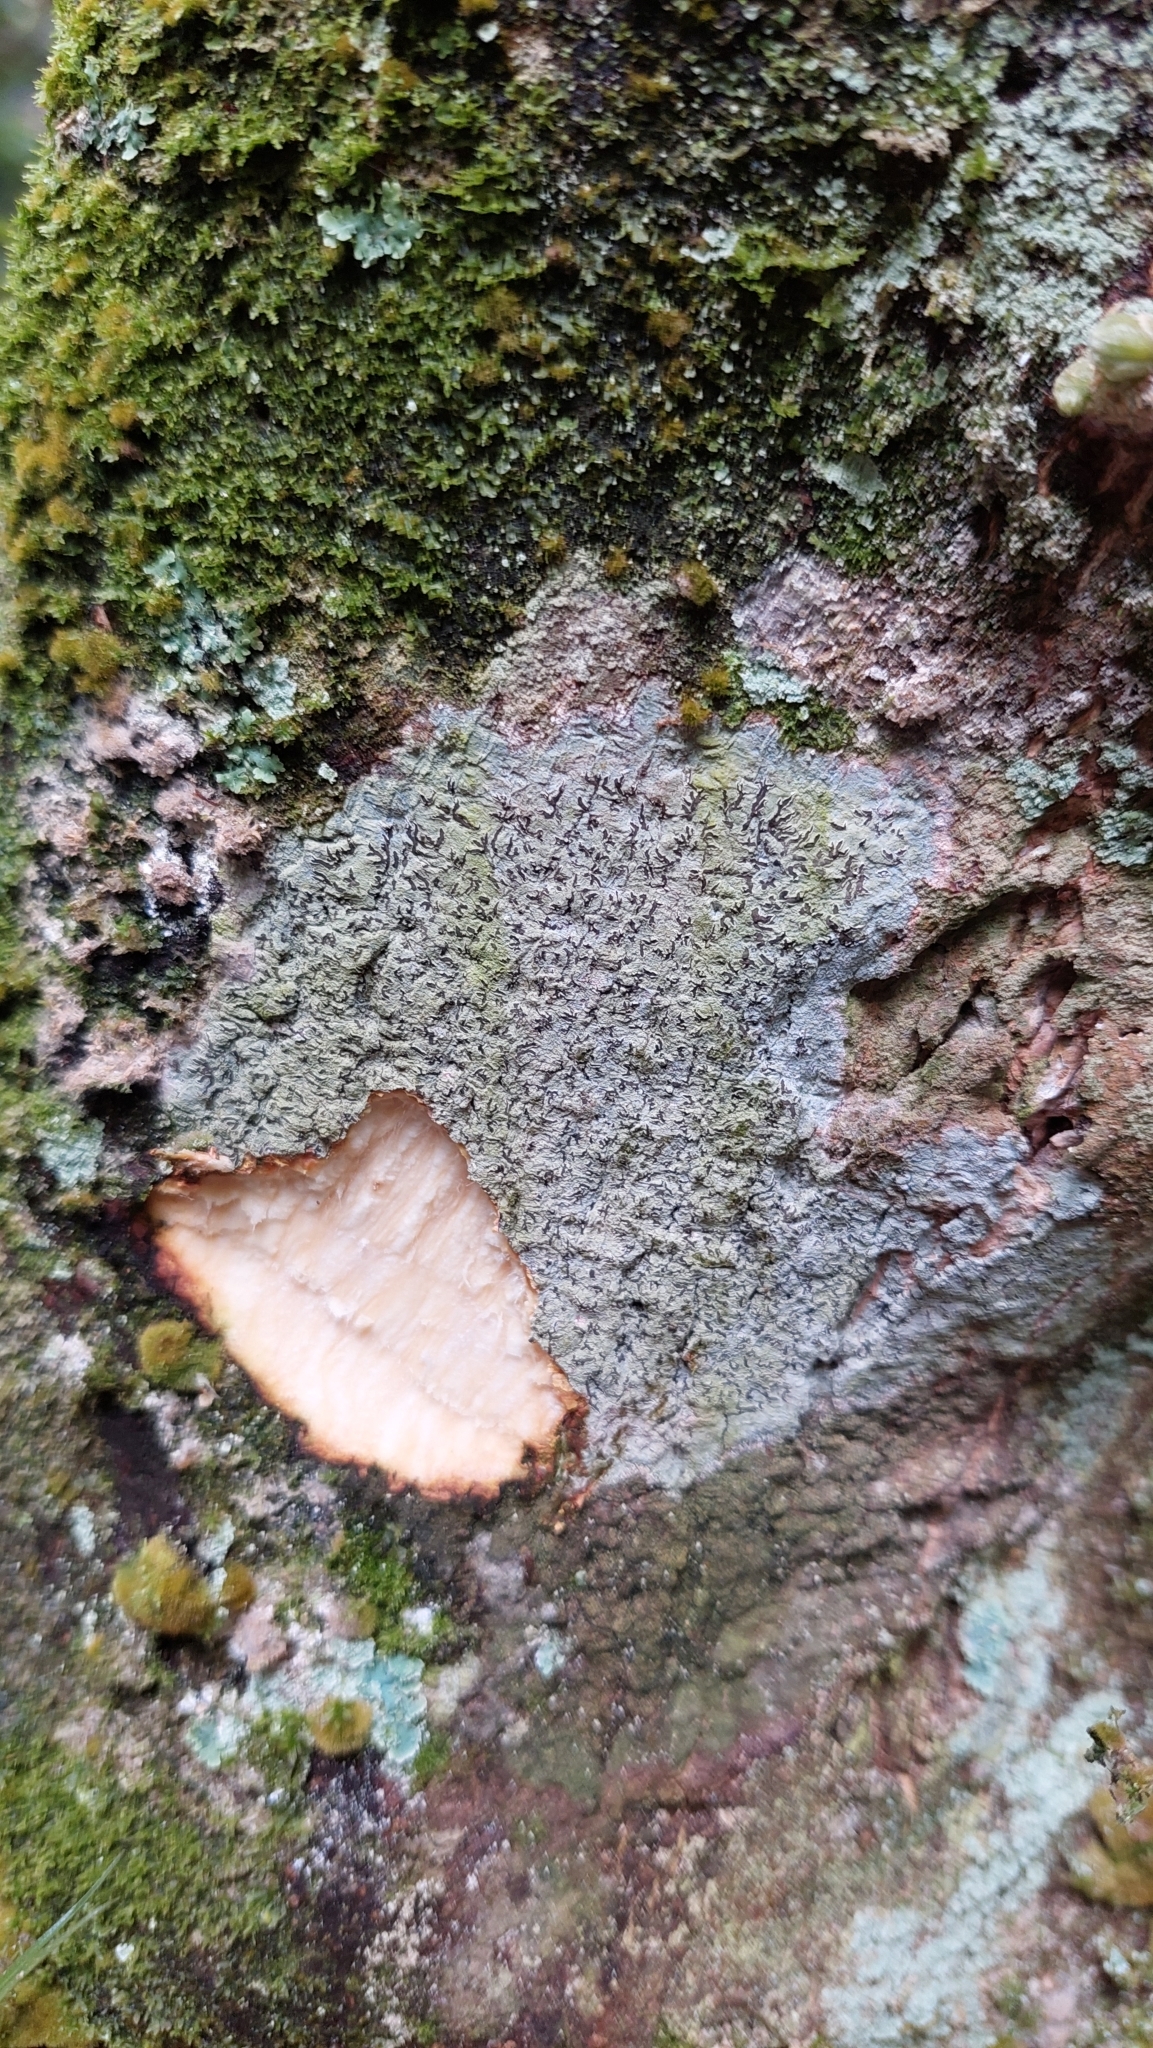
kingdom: Fungi
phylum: Ascomycota
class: Lecanoromycetes
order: Ostropales
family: Graphidaceae
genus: Phaeographis
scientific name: Phaeographis dendritica
